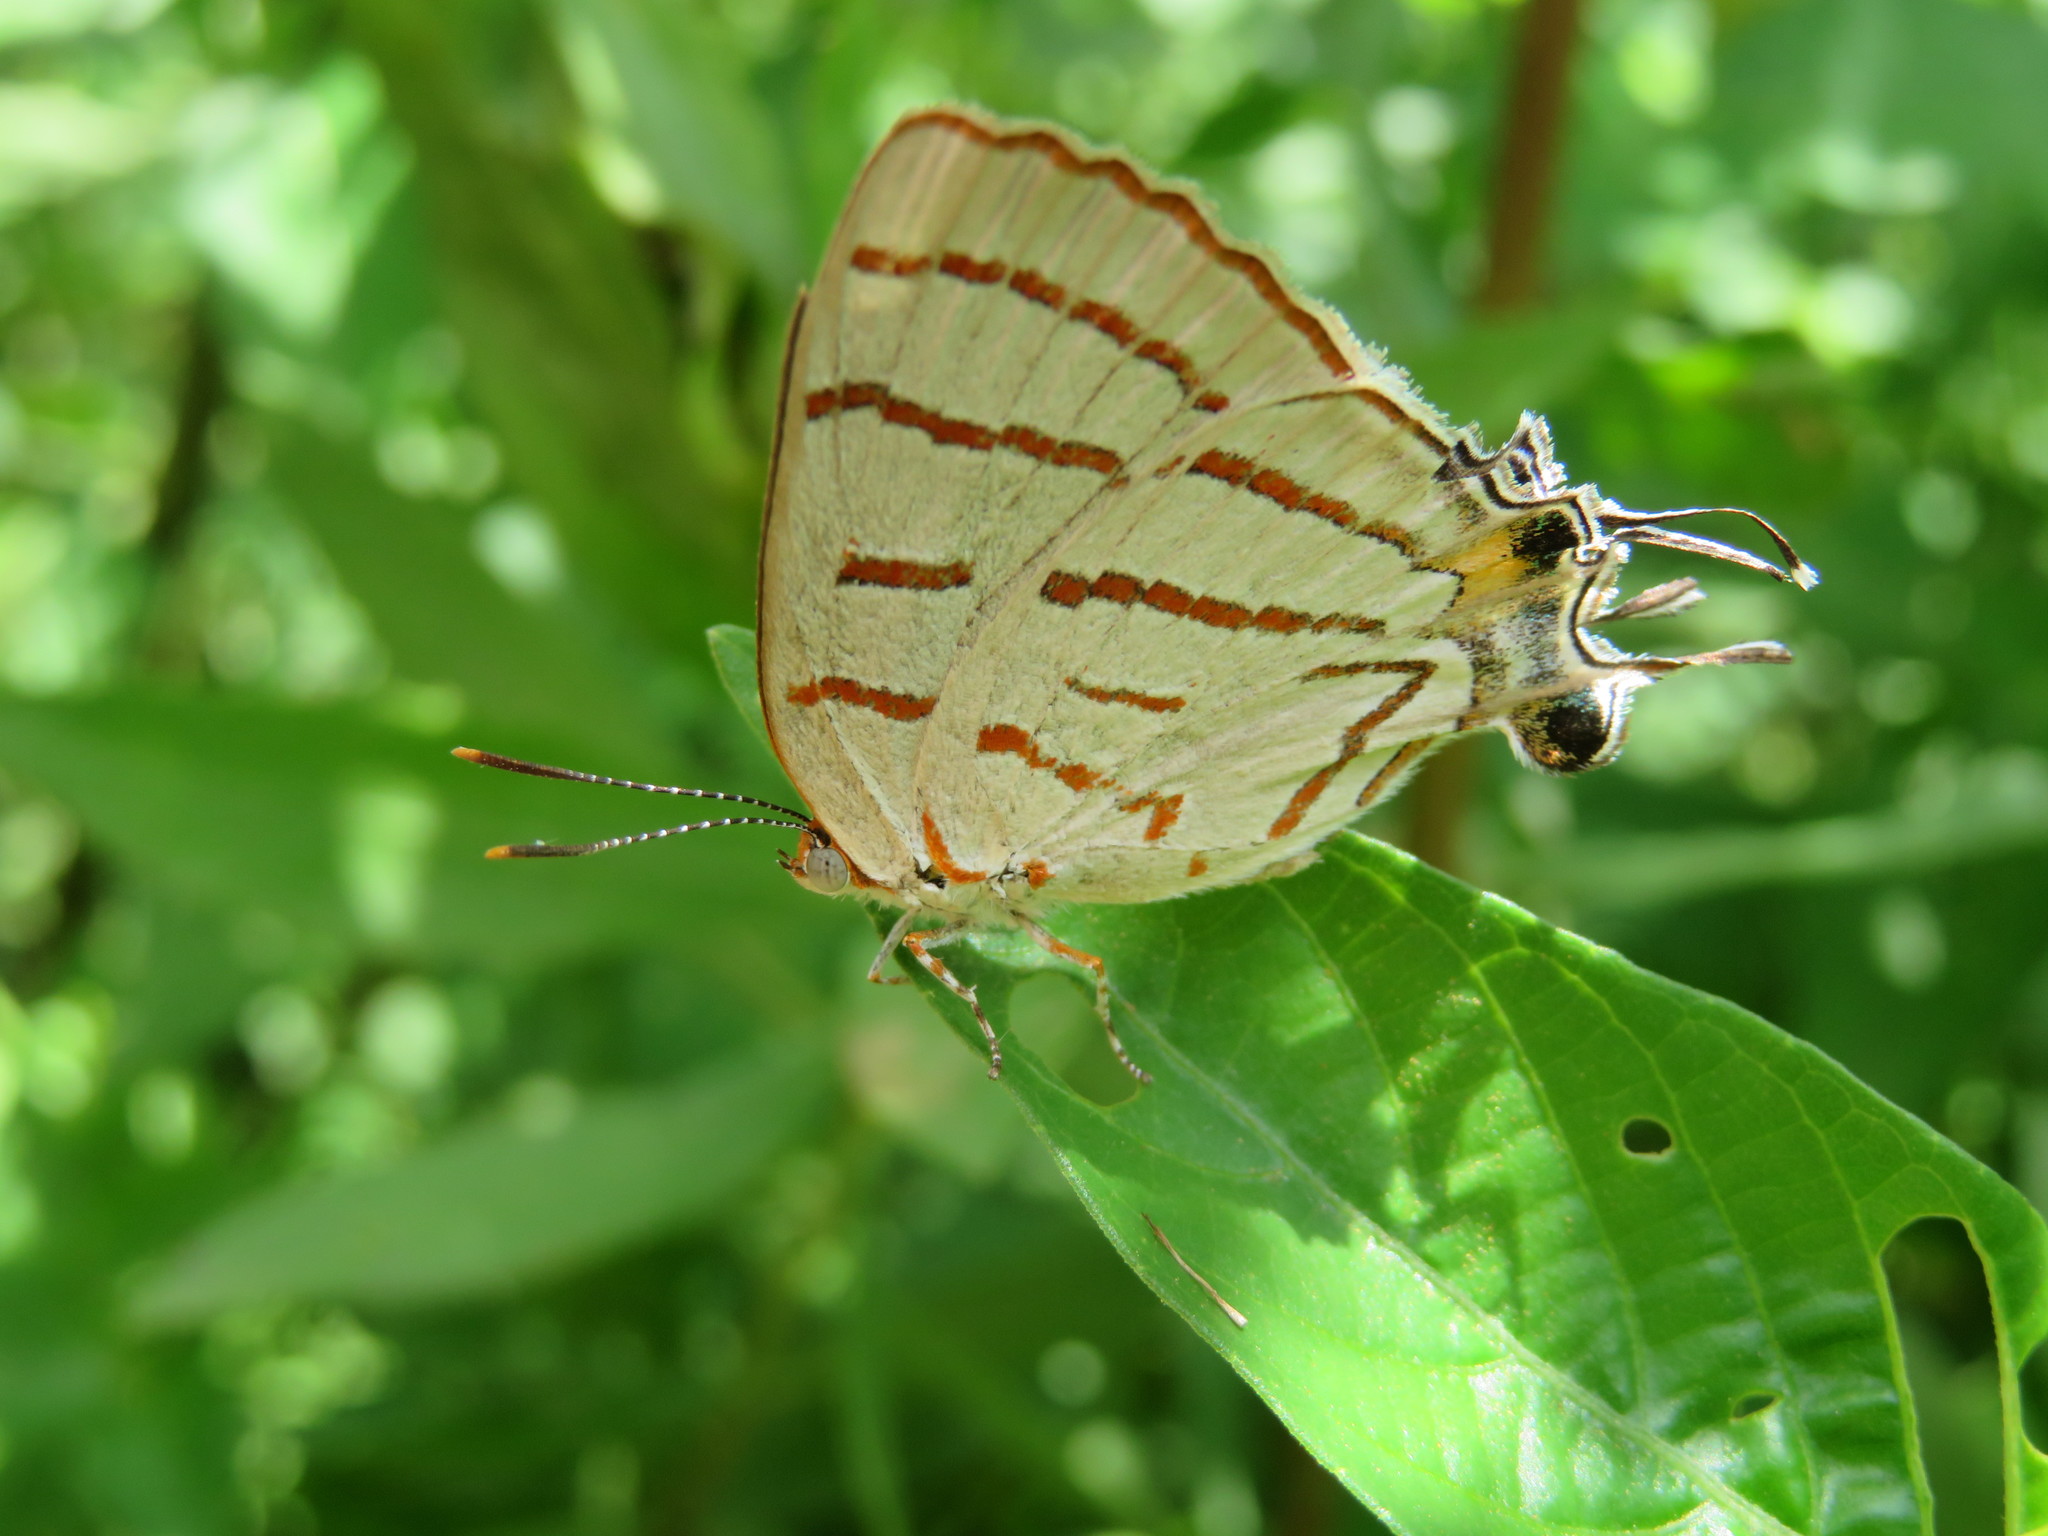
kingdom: Animalia
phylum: Arthropoda
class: Insecta
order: Lepidoptera
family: Lycaenidae
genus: Hemiolaus
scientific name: Hemiolaus caeculus
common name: Azure hairstreak
